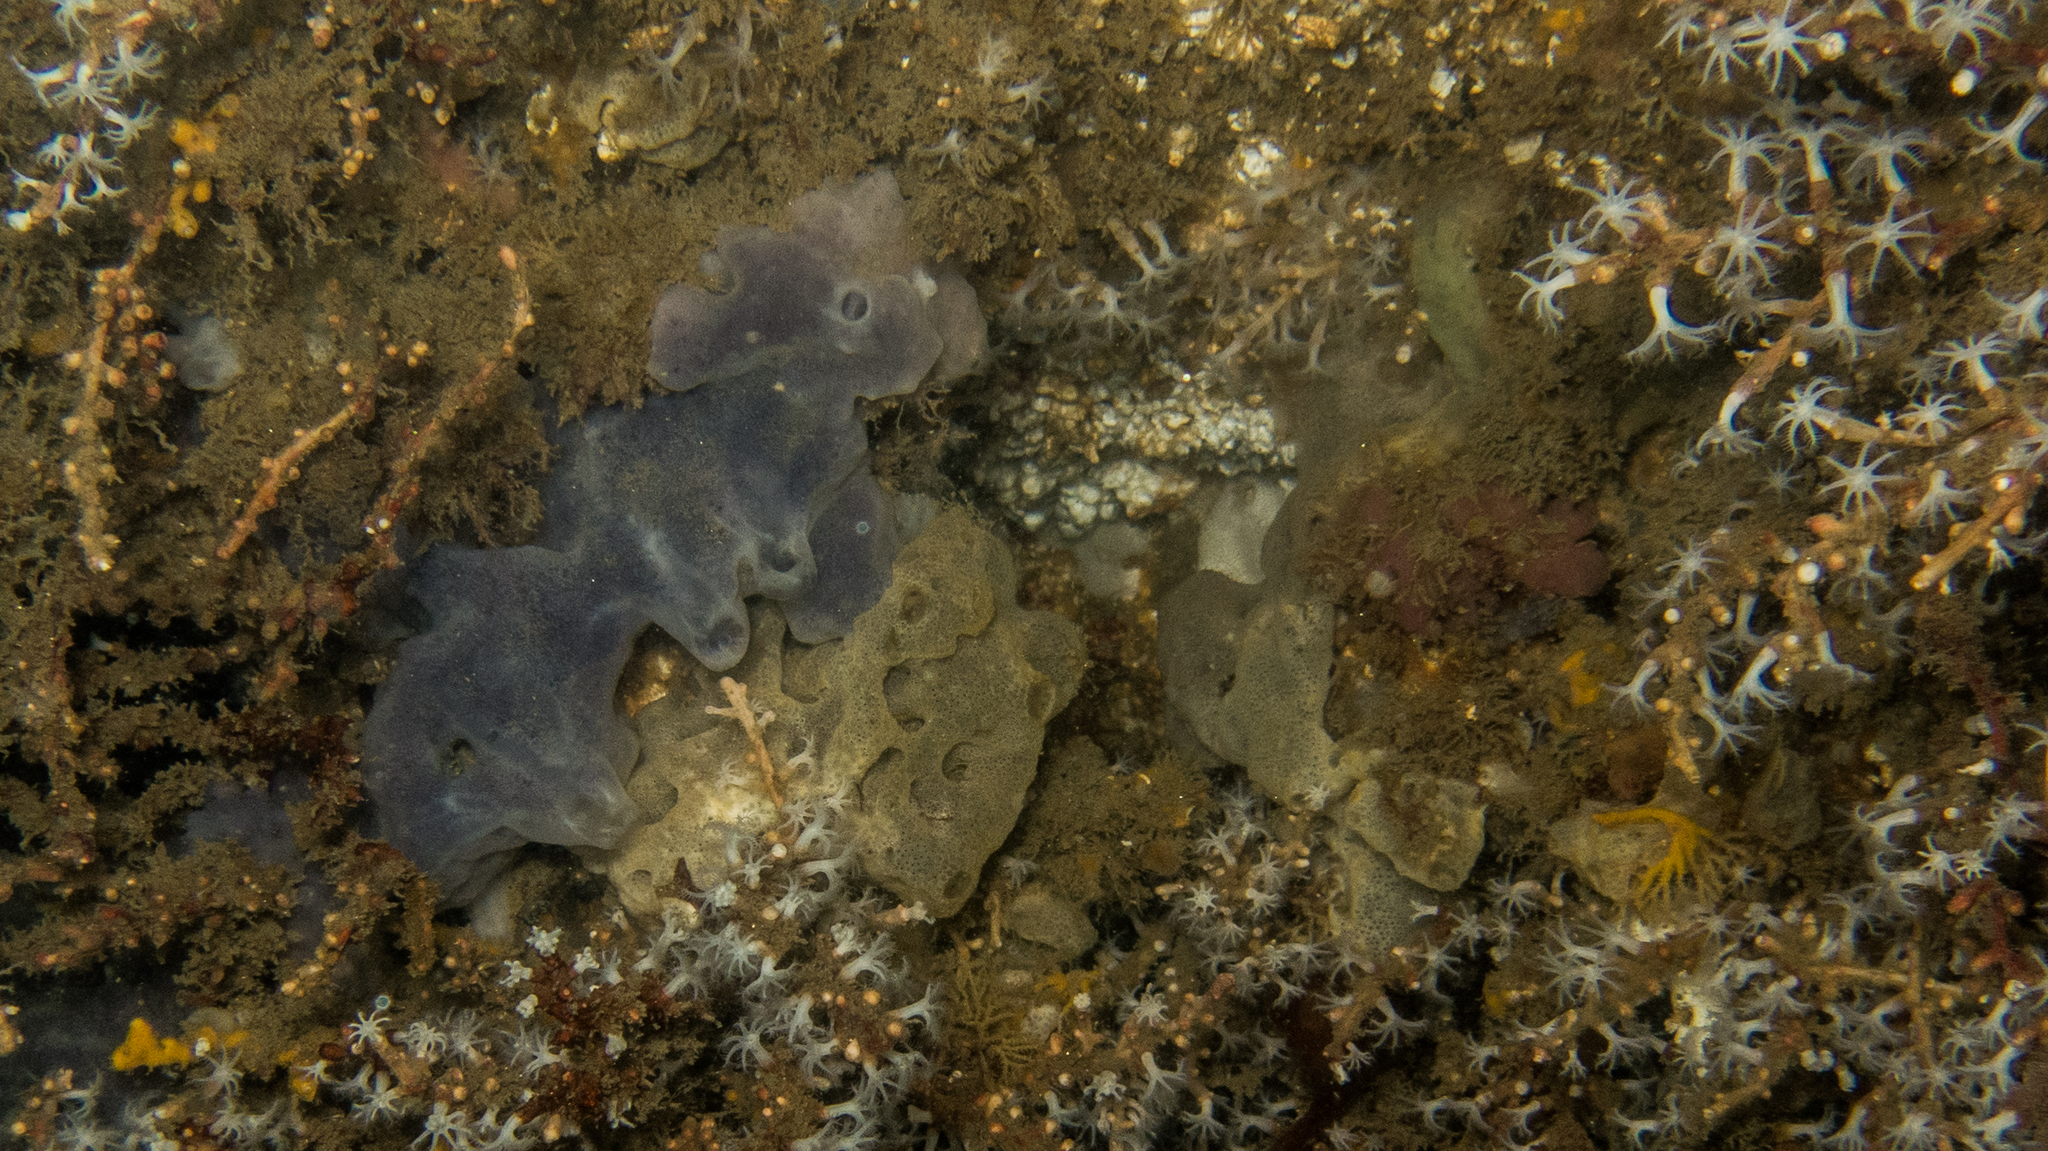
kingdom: Animalia
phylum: Porifera
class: Demospongiae
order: Poecilosclerida
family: Mycalidae
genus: Mycale
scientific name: Mycale angulosa
